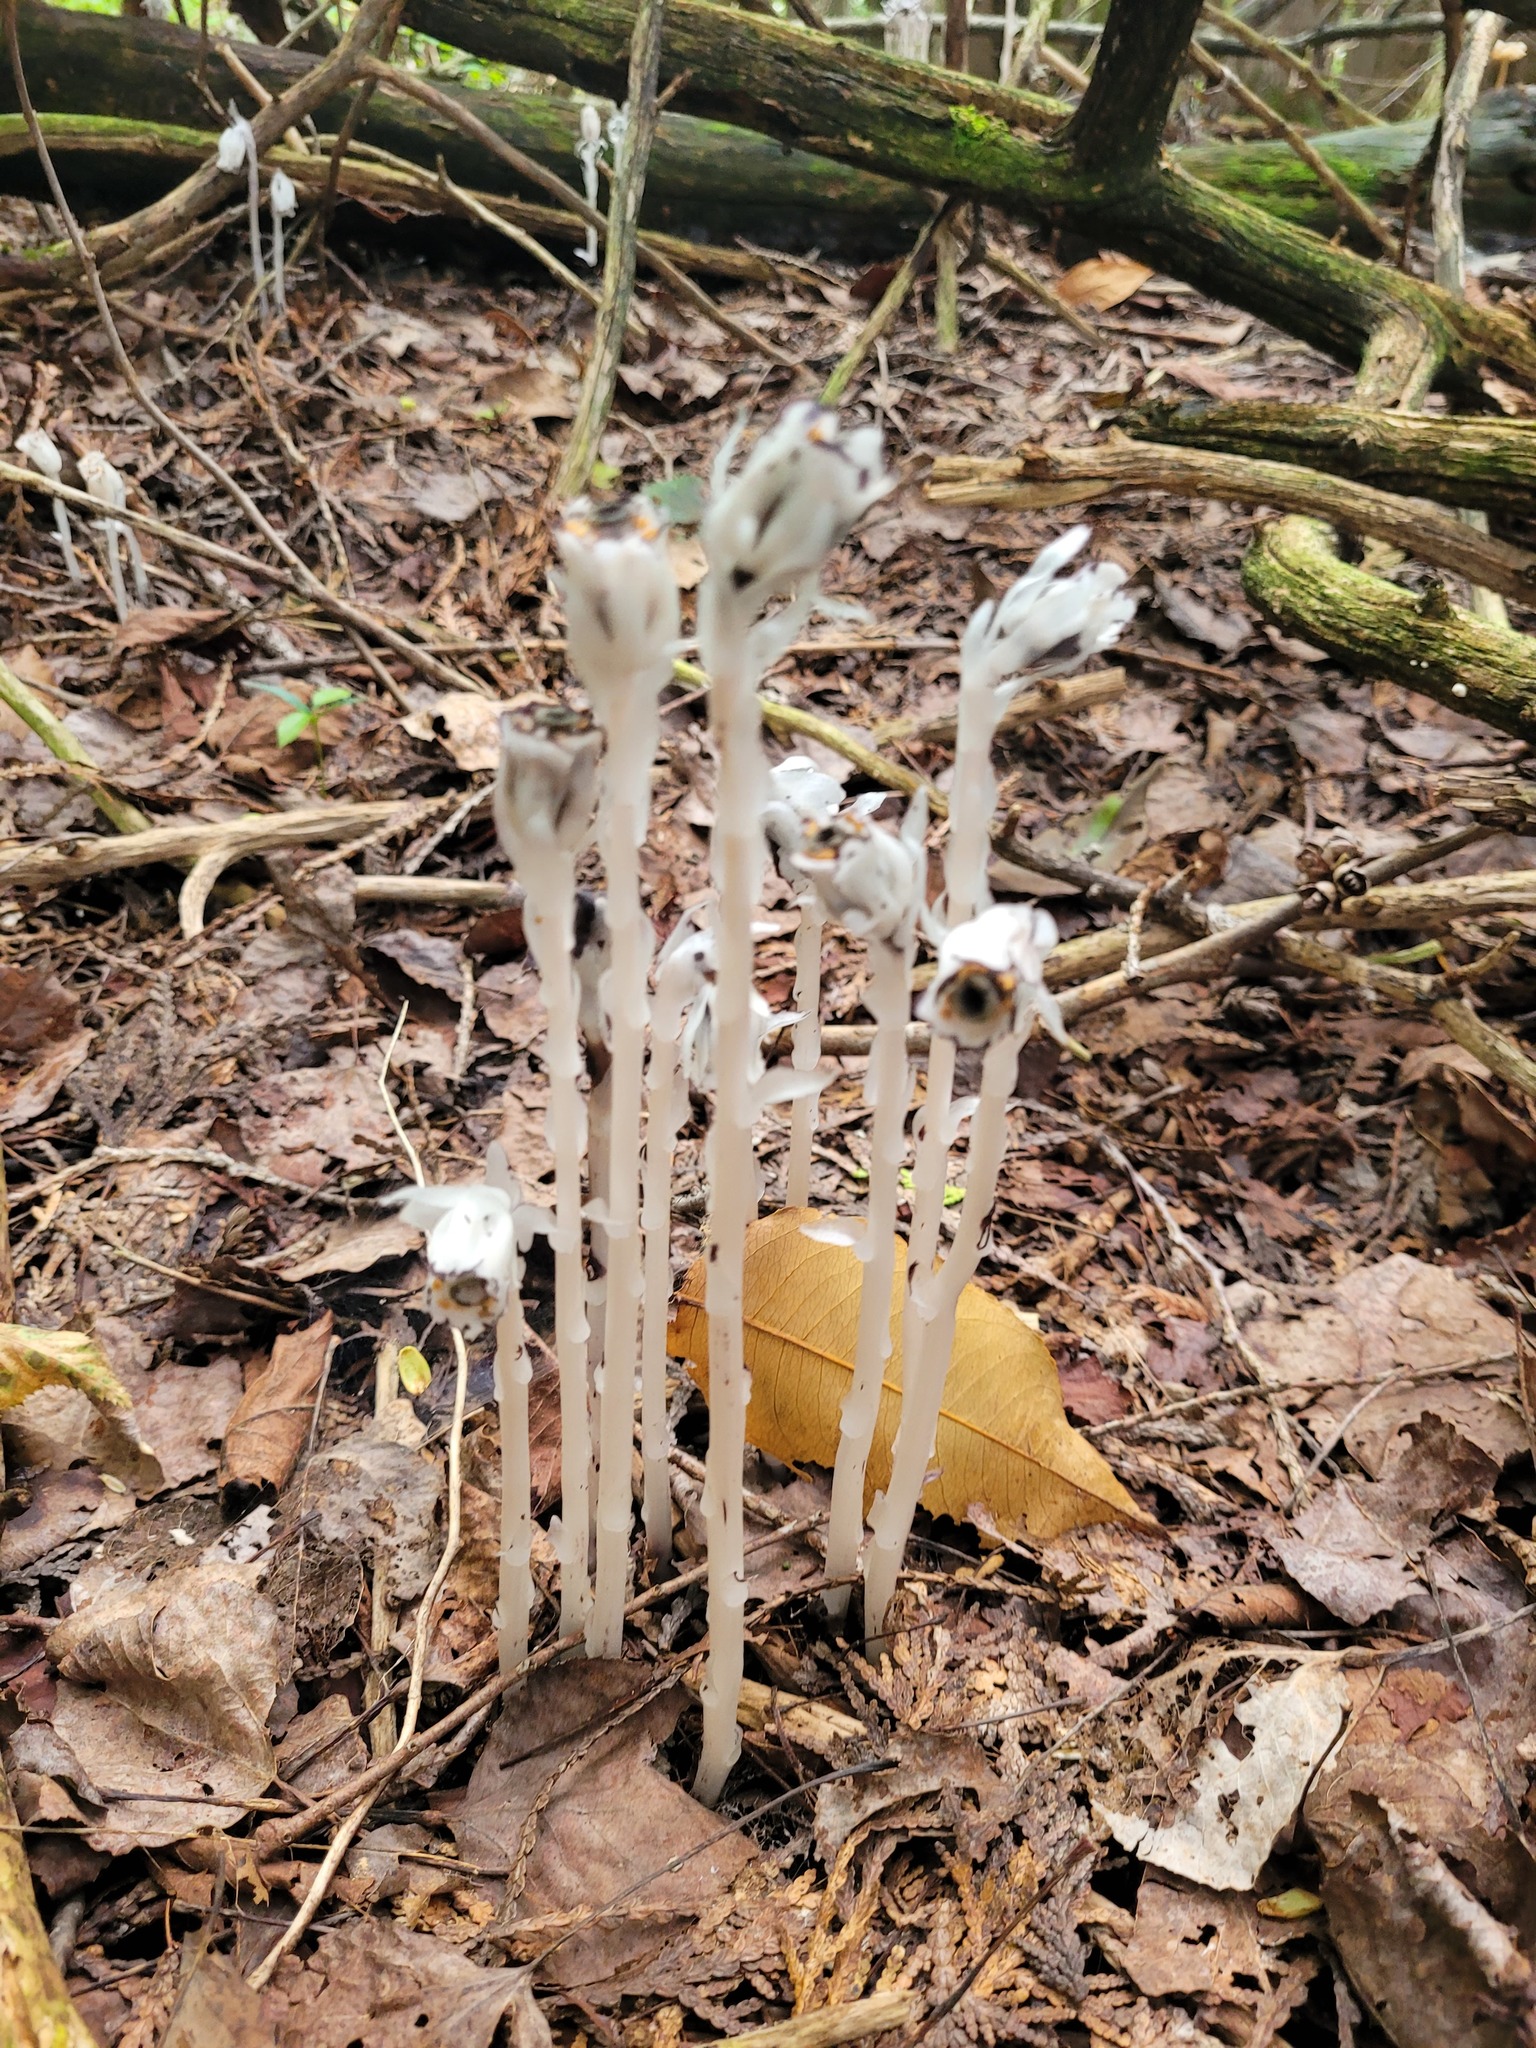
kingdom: Plantae
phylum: Tracheophyta
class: Magnoliopsida
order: Ericales
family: Ericaceae
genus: Monotropa
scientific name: Monotropa uniflora
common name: Convulsion root
